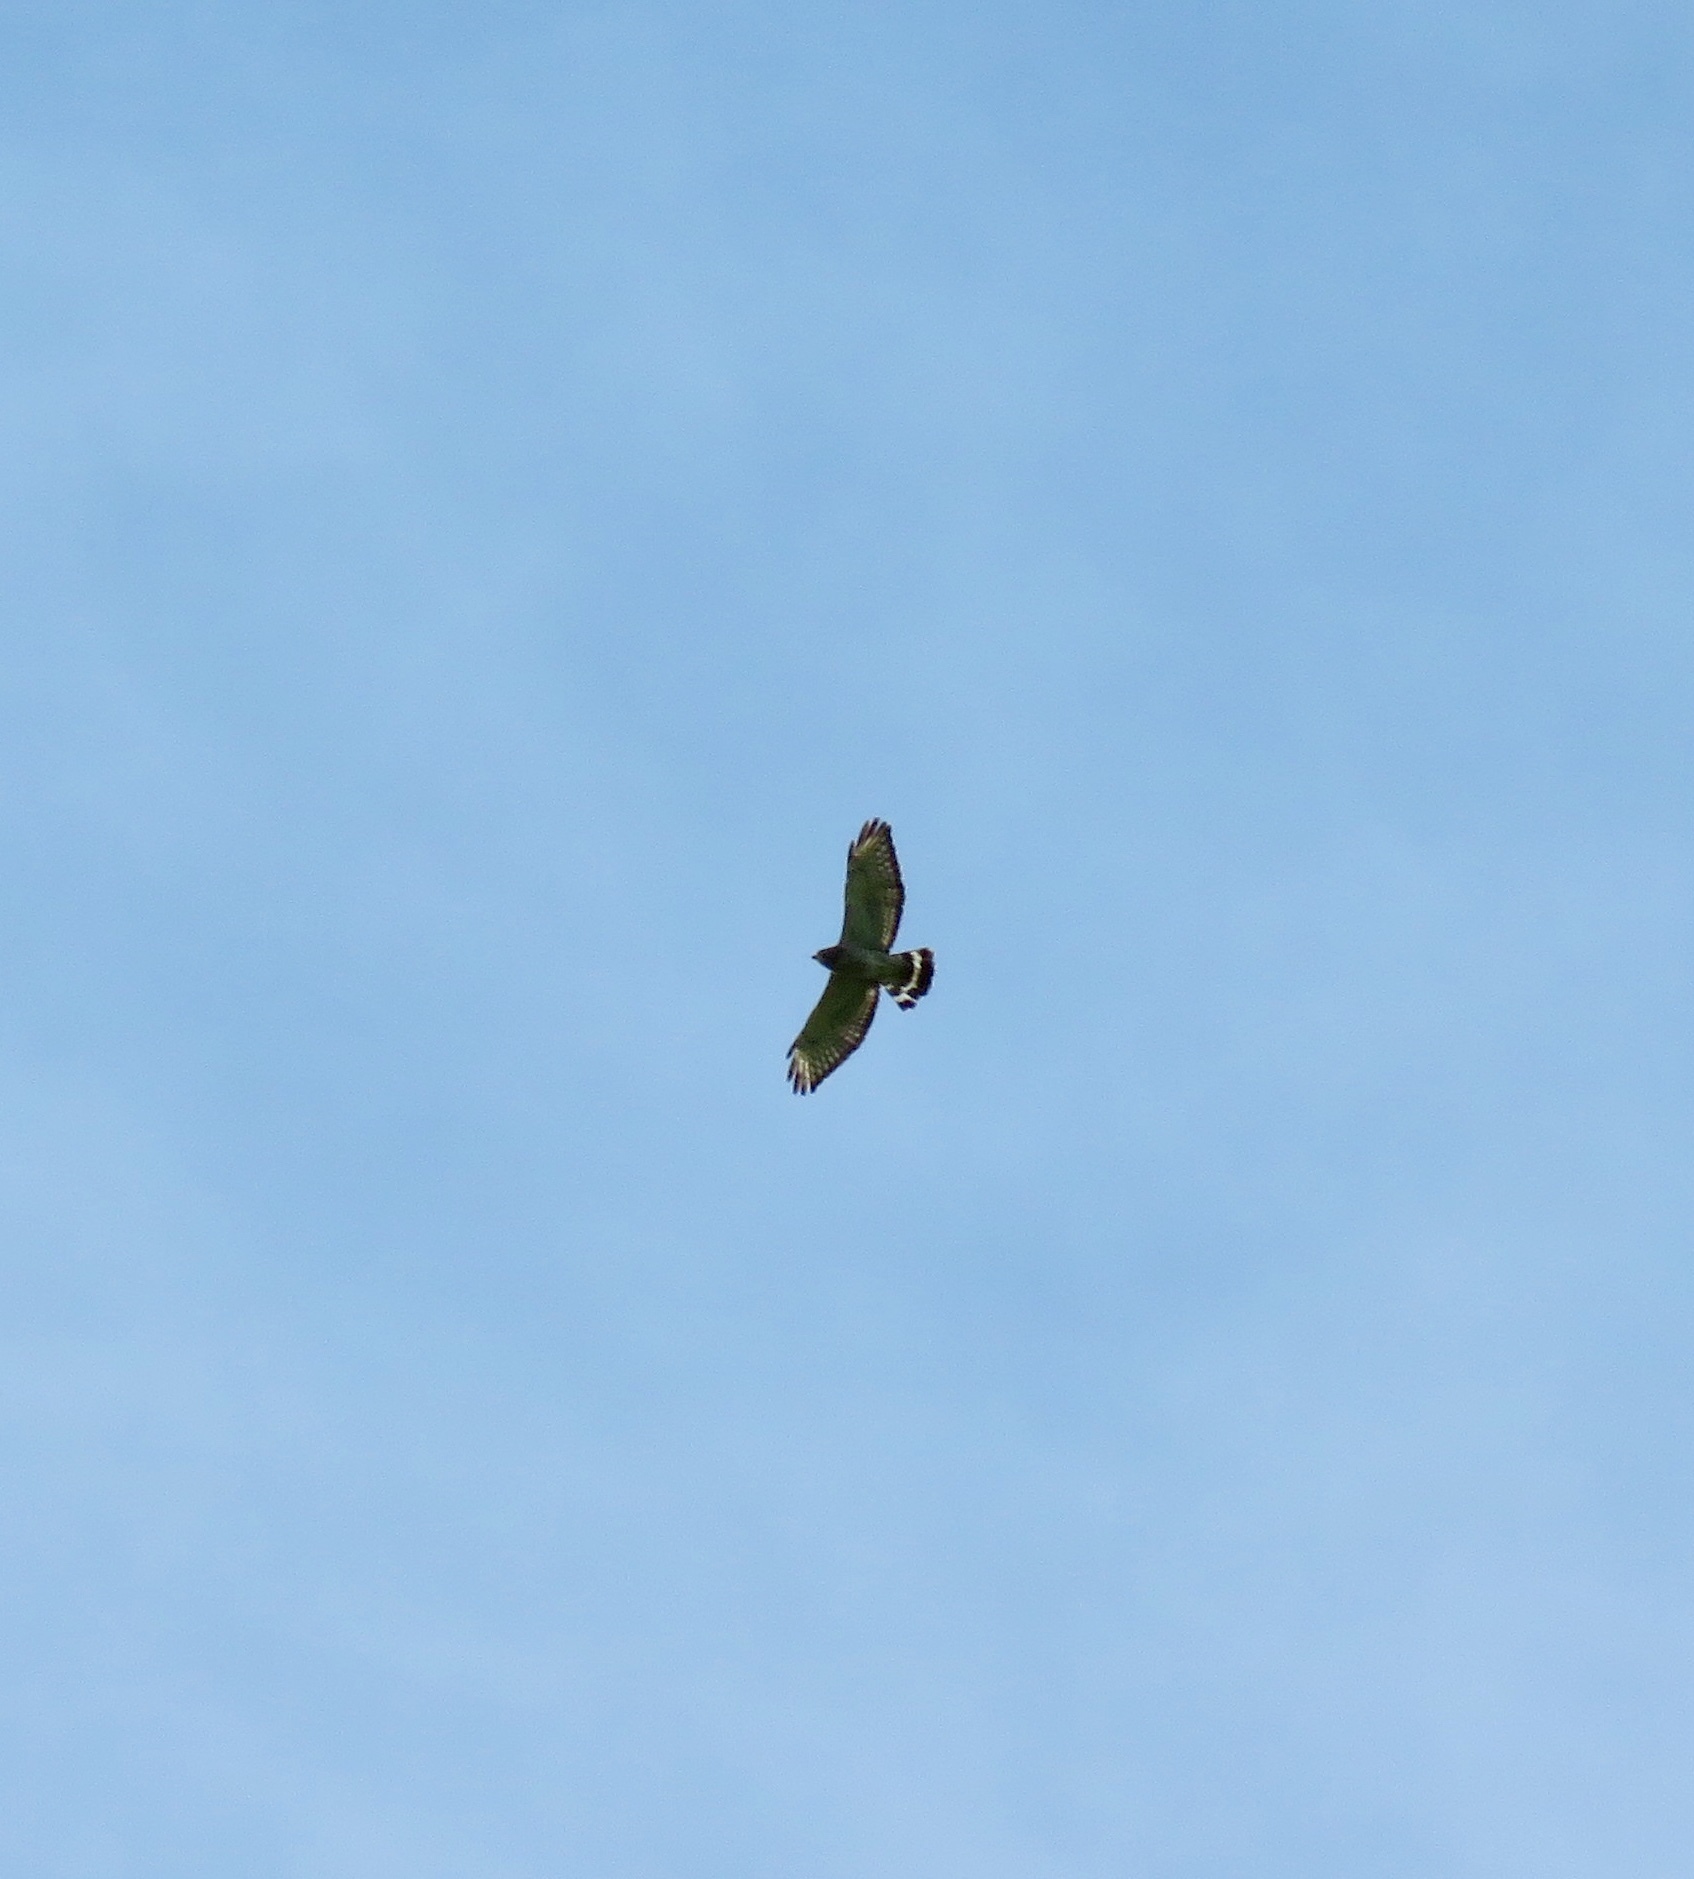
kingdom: Animalia
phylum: Chordata
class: Aves
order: Accipitriformes
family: Accipitridae
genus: Buteo
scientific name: Buteo platypterus
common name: Broad-winged hawk
